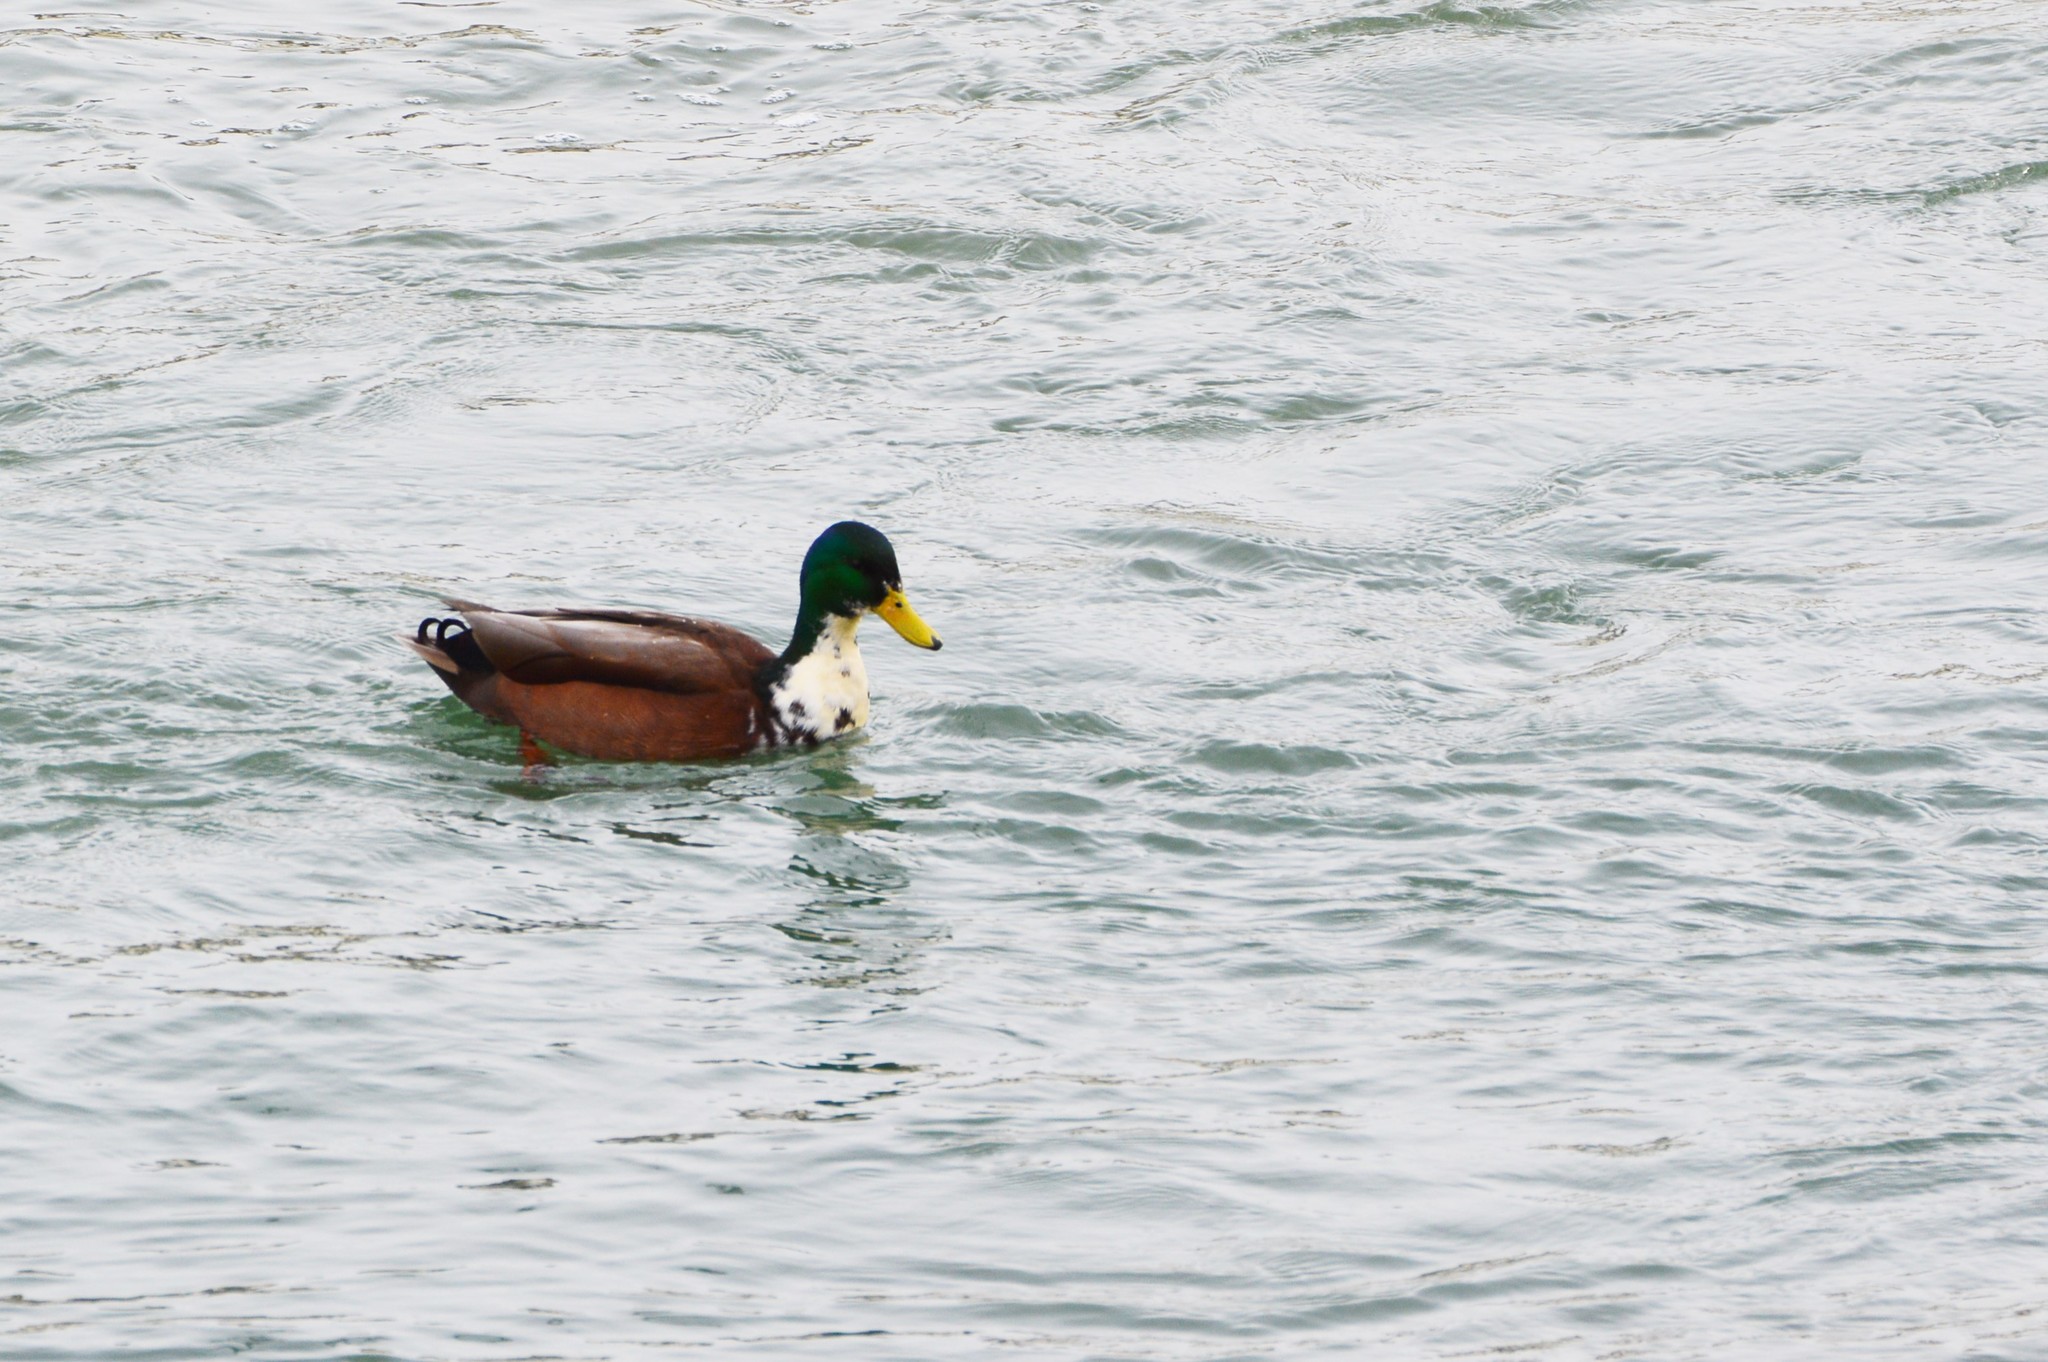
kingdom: Animalia
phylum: Chordata
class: Aves
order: Anseriformes
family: Anatidae
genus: Anas
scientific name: Anas platyrhynchos
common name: Mallard
